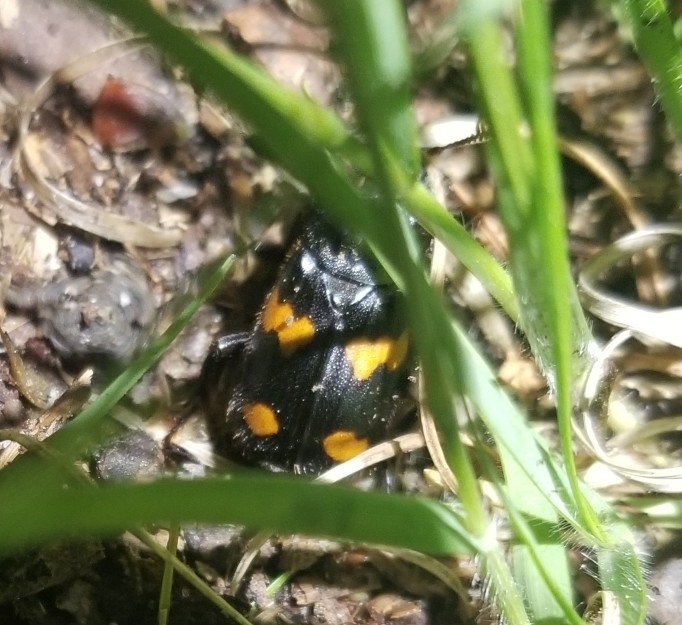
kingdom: Animalia
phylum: Arthropoda
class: Insecta
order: Coleoptera
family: Staphylinidae
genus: Nicrophorus
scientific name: Nicrophorus orbicollis
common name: Roundneck sexton beetle
